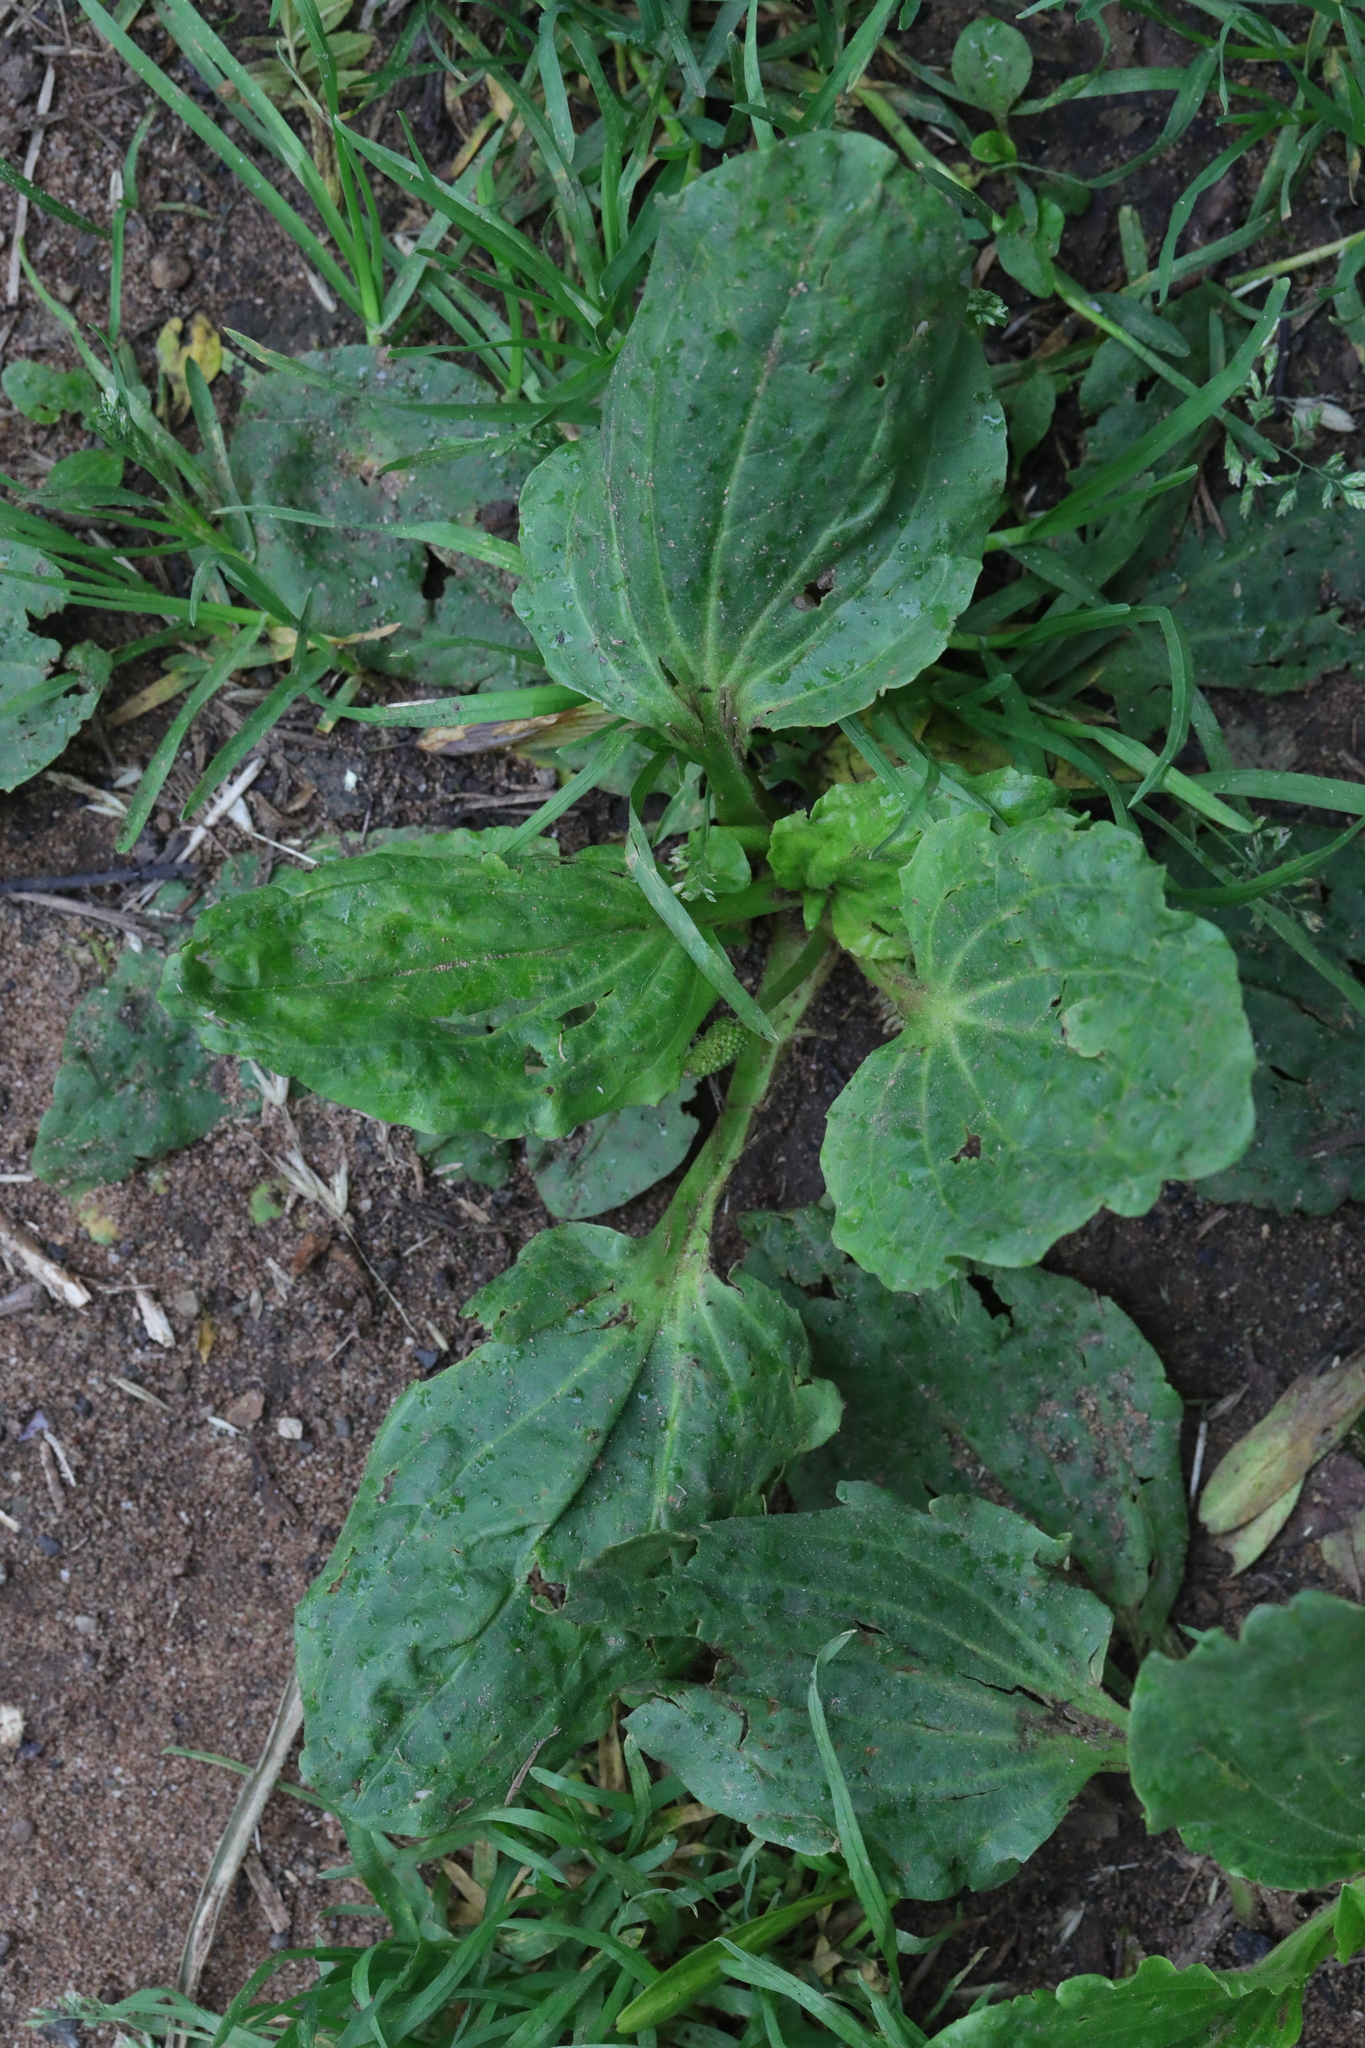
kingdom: Plantae
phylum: Tracheophyta
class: Magnoliopsida
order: Lamiales
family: Plantaginaceae
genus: Plantago
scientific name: Plantago major
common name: Common plantain
